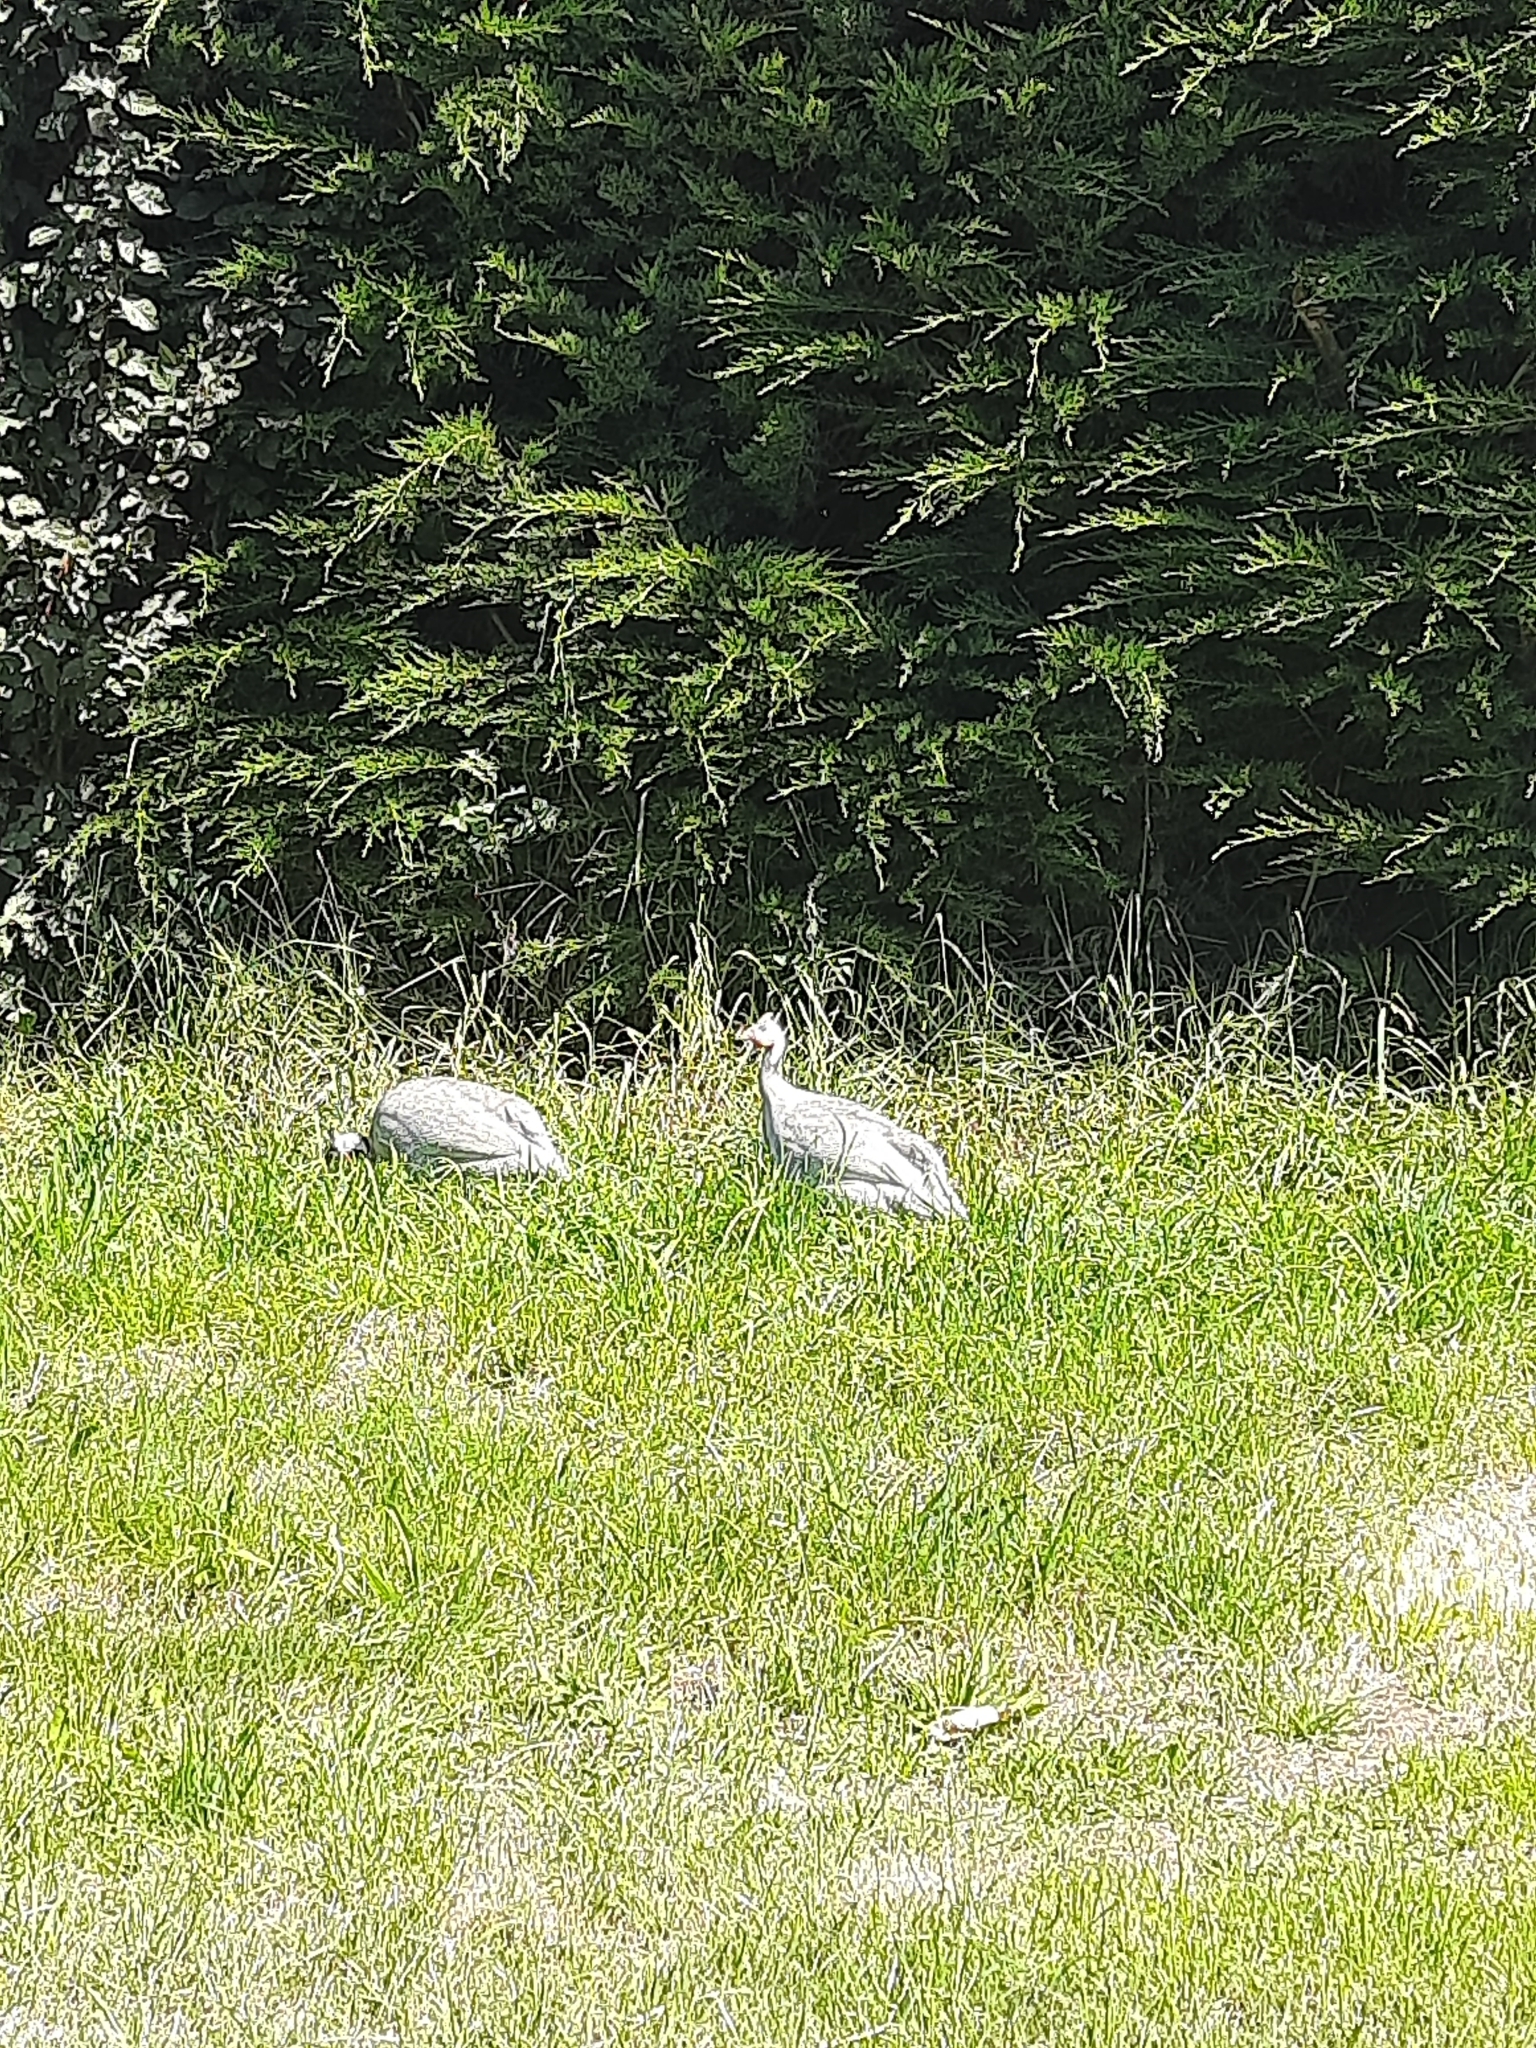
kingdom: Animalia
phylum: Chordata
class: Aves
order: Galliformes
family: Numididae
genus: Numida
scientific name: Numida meleagris
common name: Helmeted guineafowl
